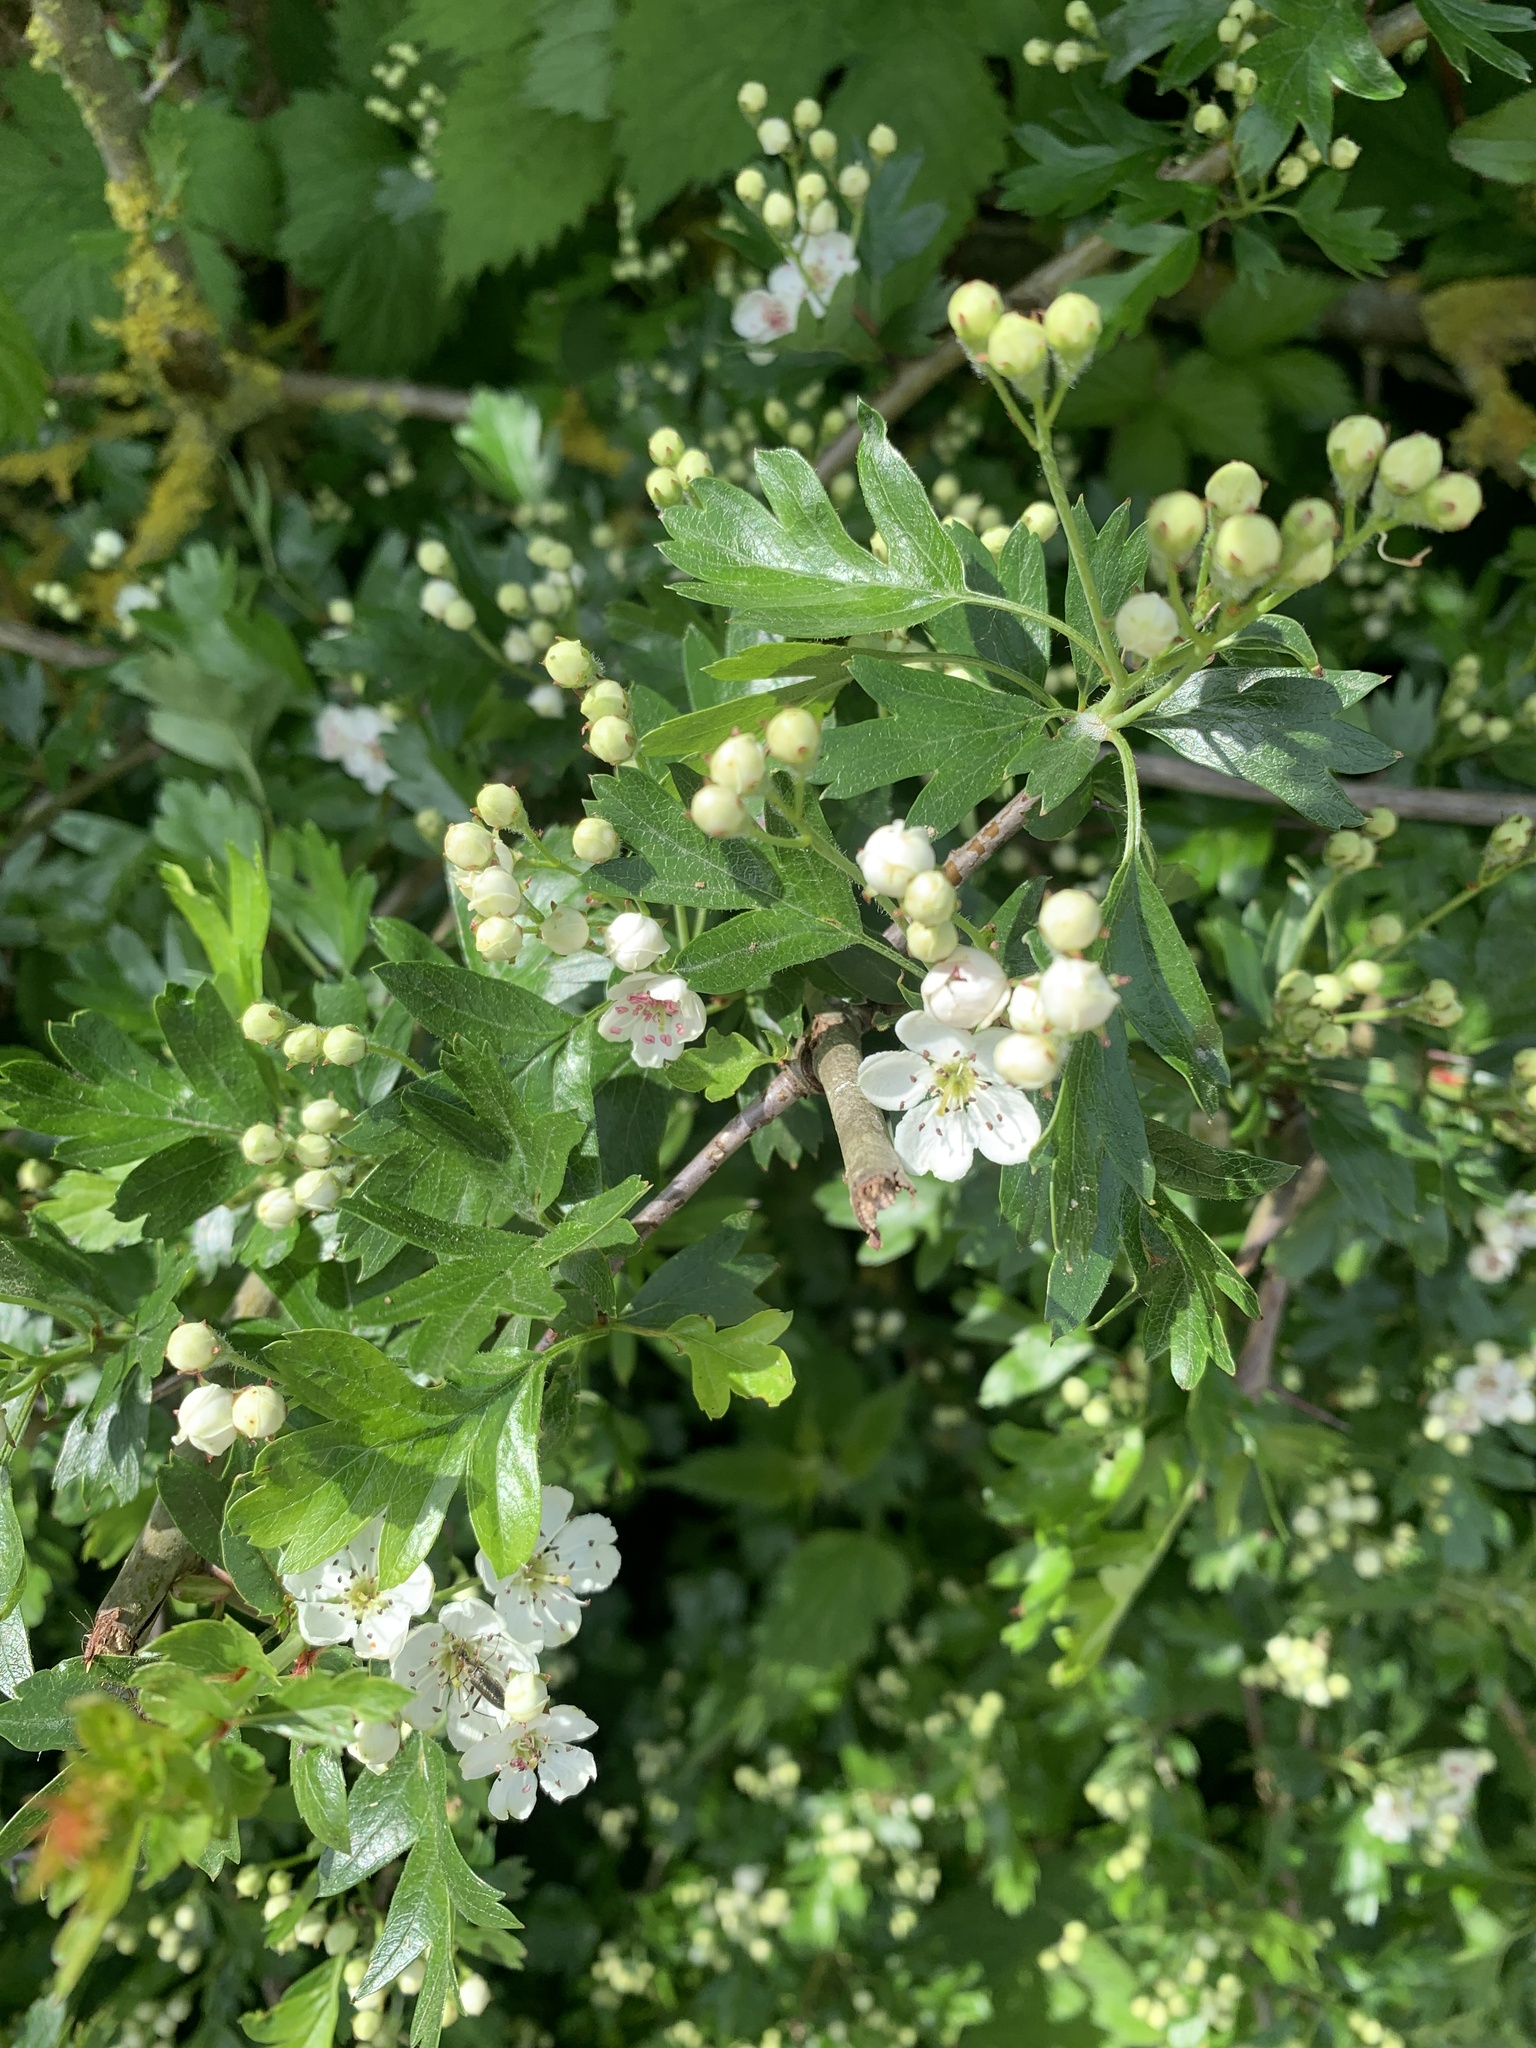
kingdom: Plantae
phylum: Tracheophyta
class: Magnoliopsida
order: Rosales
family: Rosaceae
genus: Crataegus
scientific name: Crataegus monogyna
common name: Hawthorn
